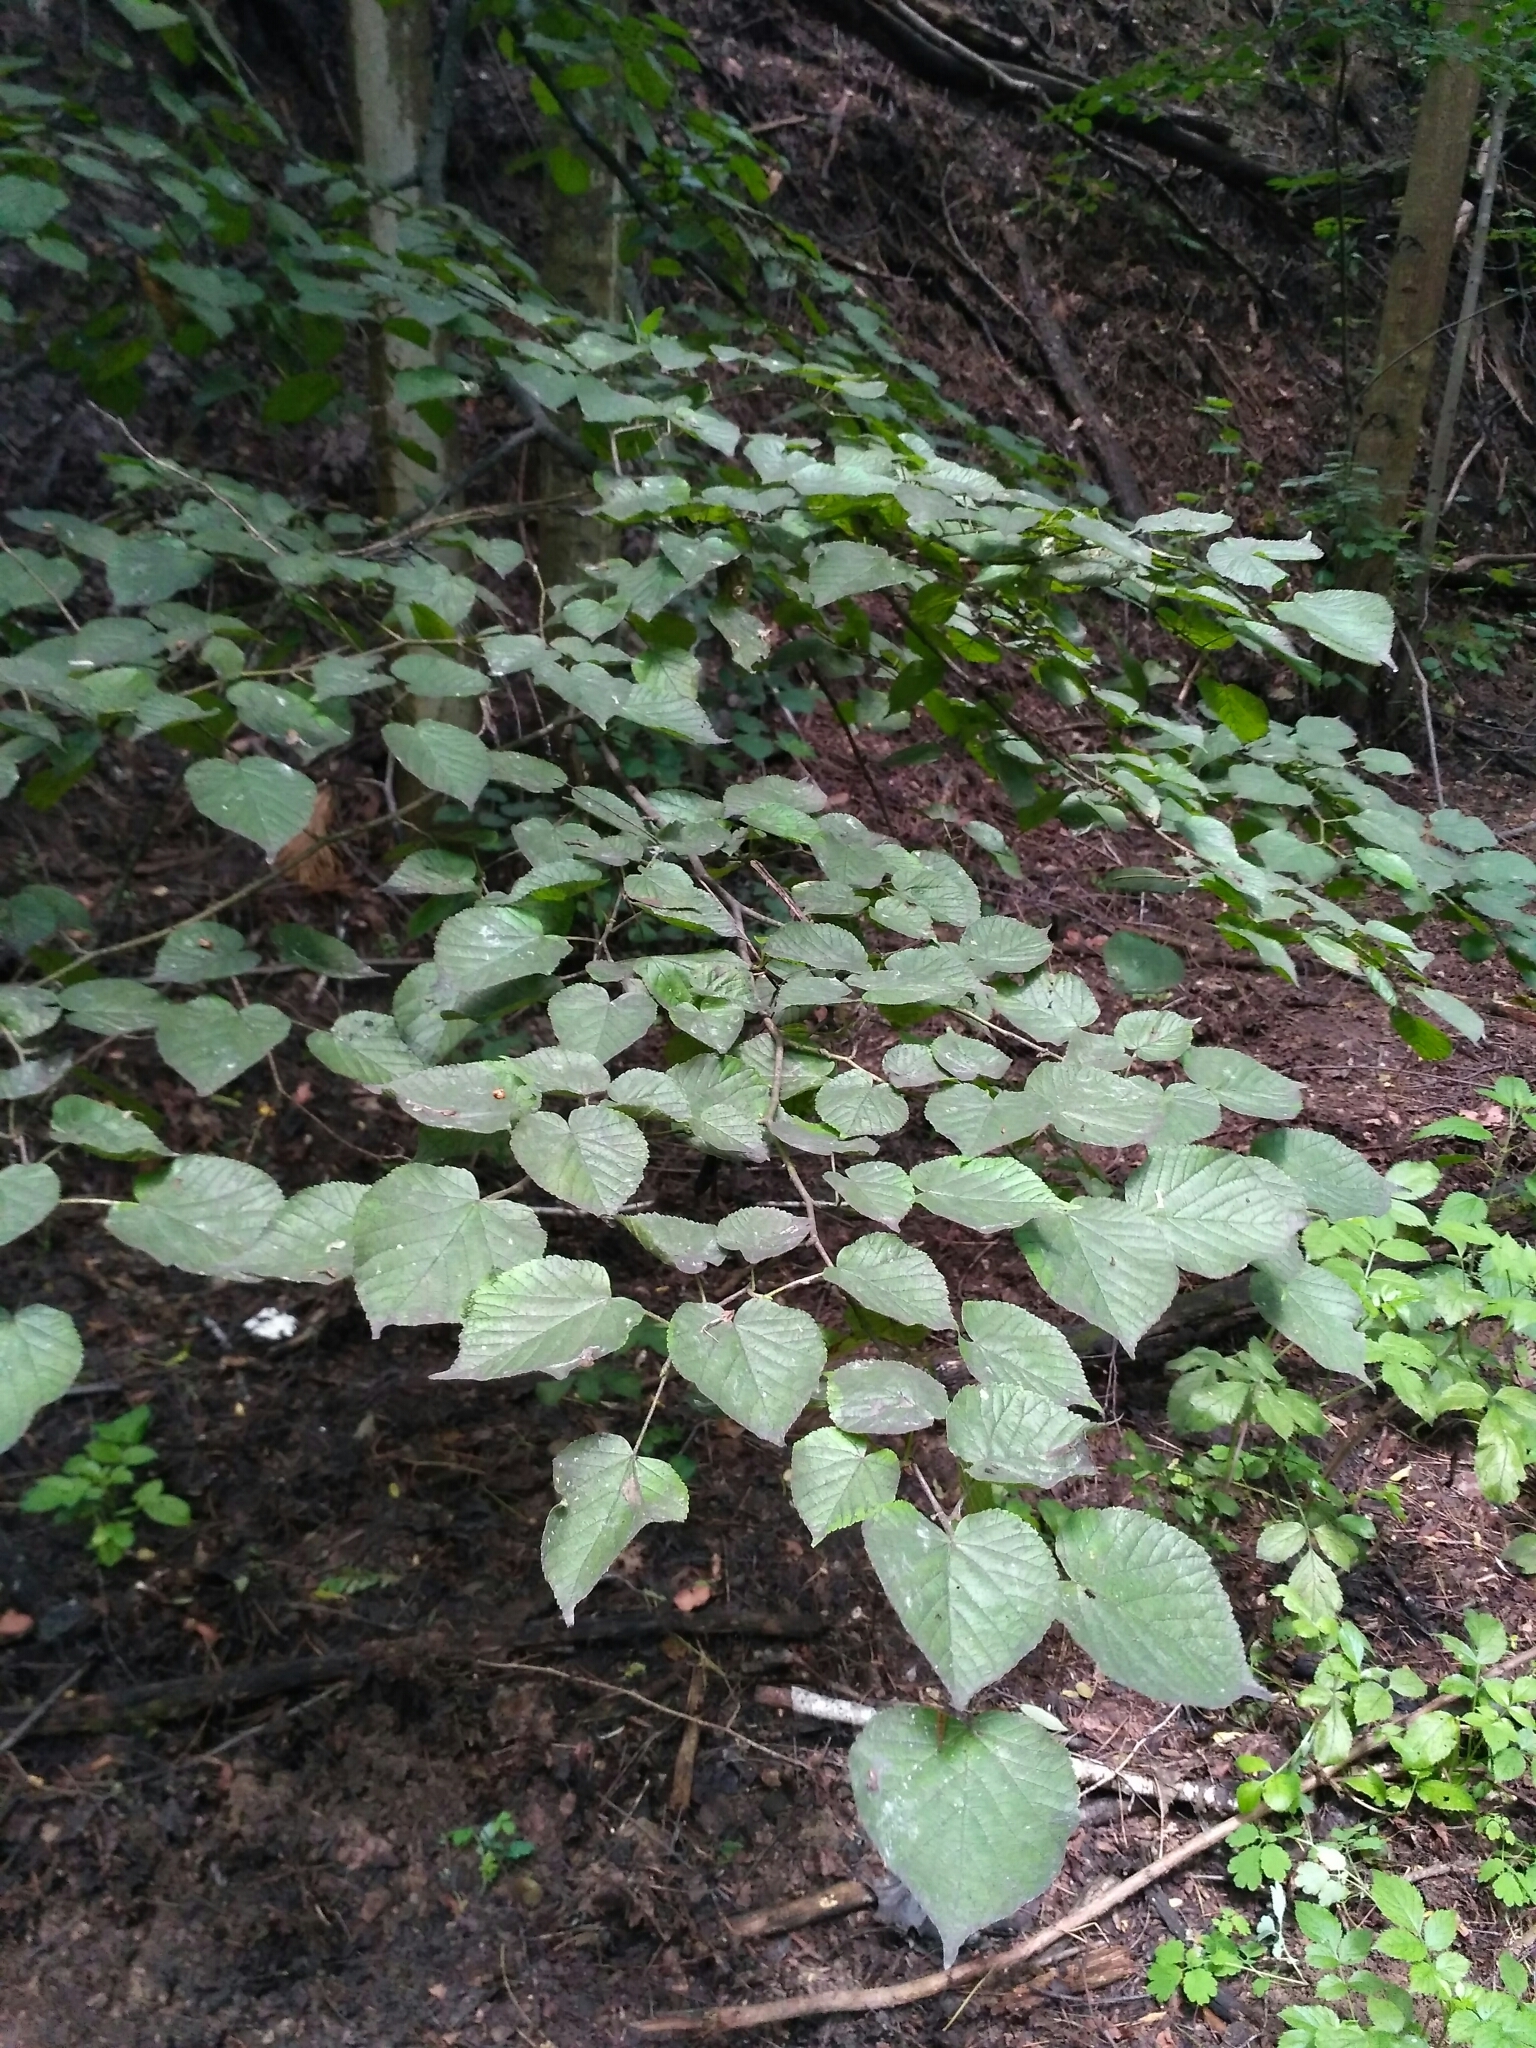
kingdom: Plantae
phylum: Tracheophyta
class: Magnoliopsida
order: Malvales
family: Malvaceae
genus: Tilia
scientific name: Tilia cordata
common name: Small-leaved lime
